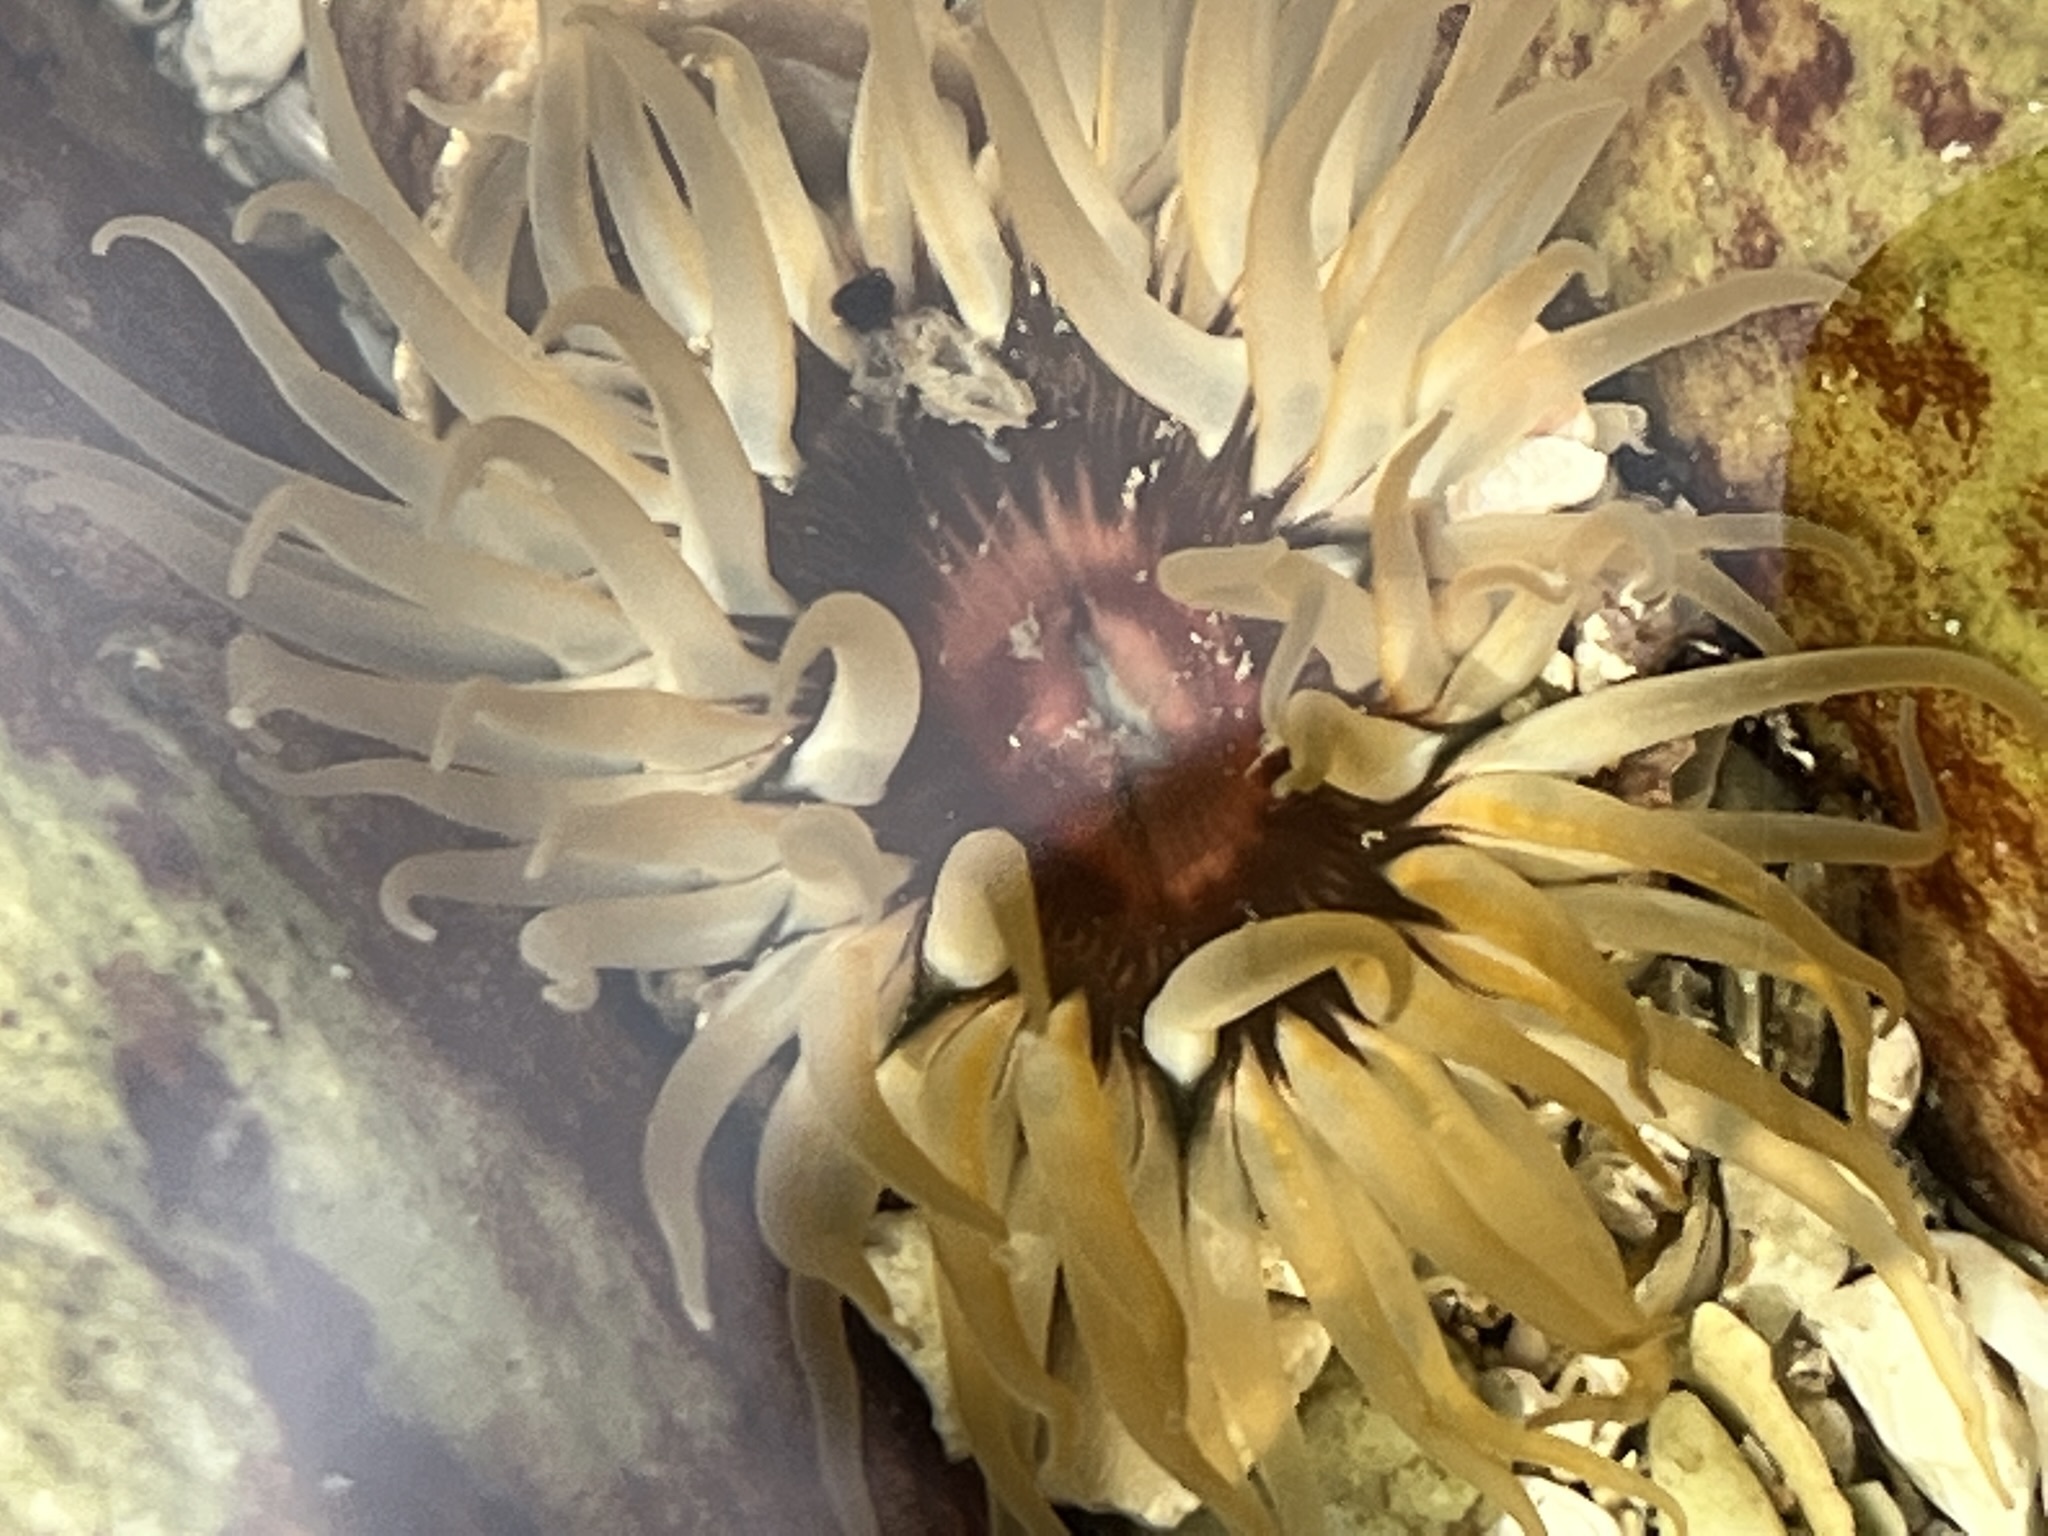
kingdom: Animalia
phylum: Cnidaria
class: Anthozoa
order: Actiniaria
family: Actiniidae
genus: Anthopleura
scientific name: Anthopleura michaelseni
